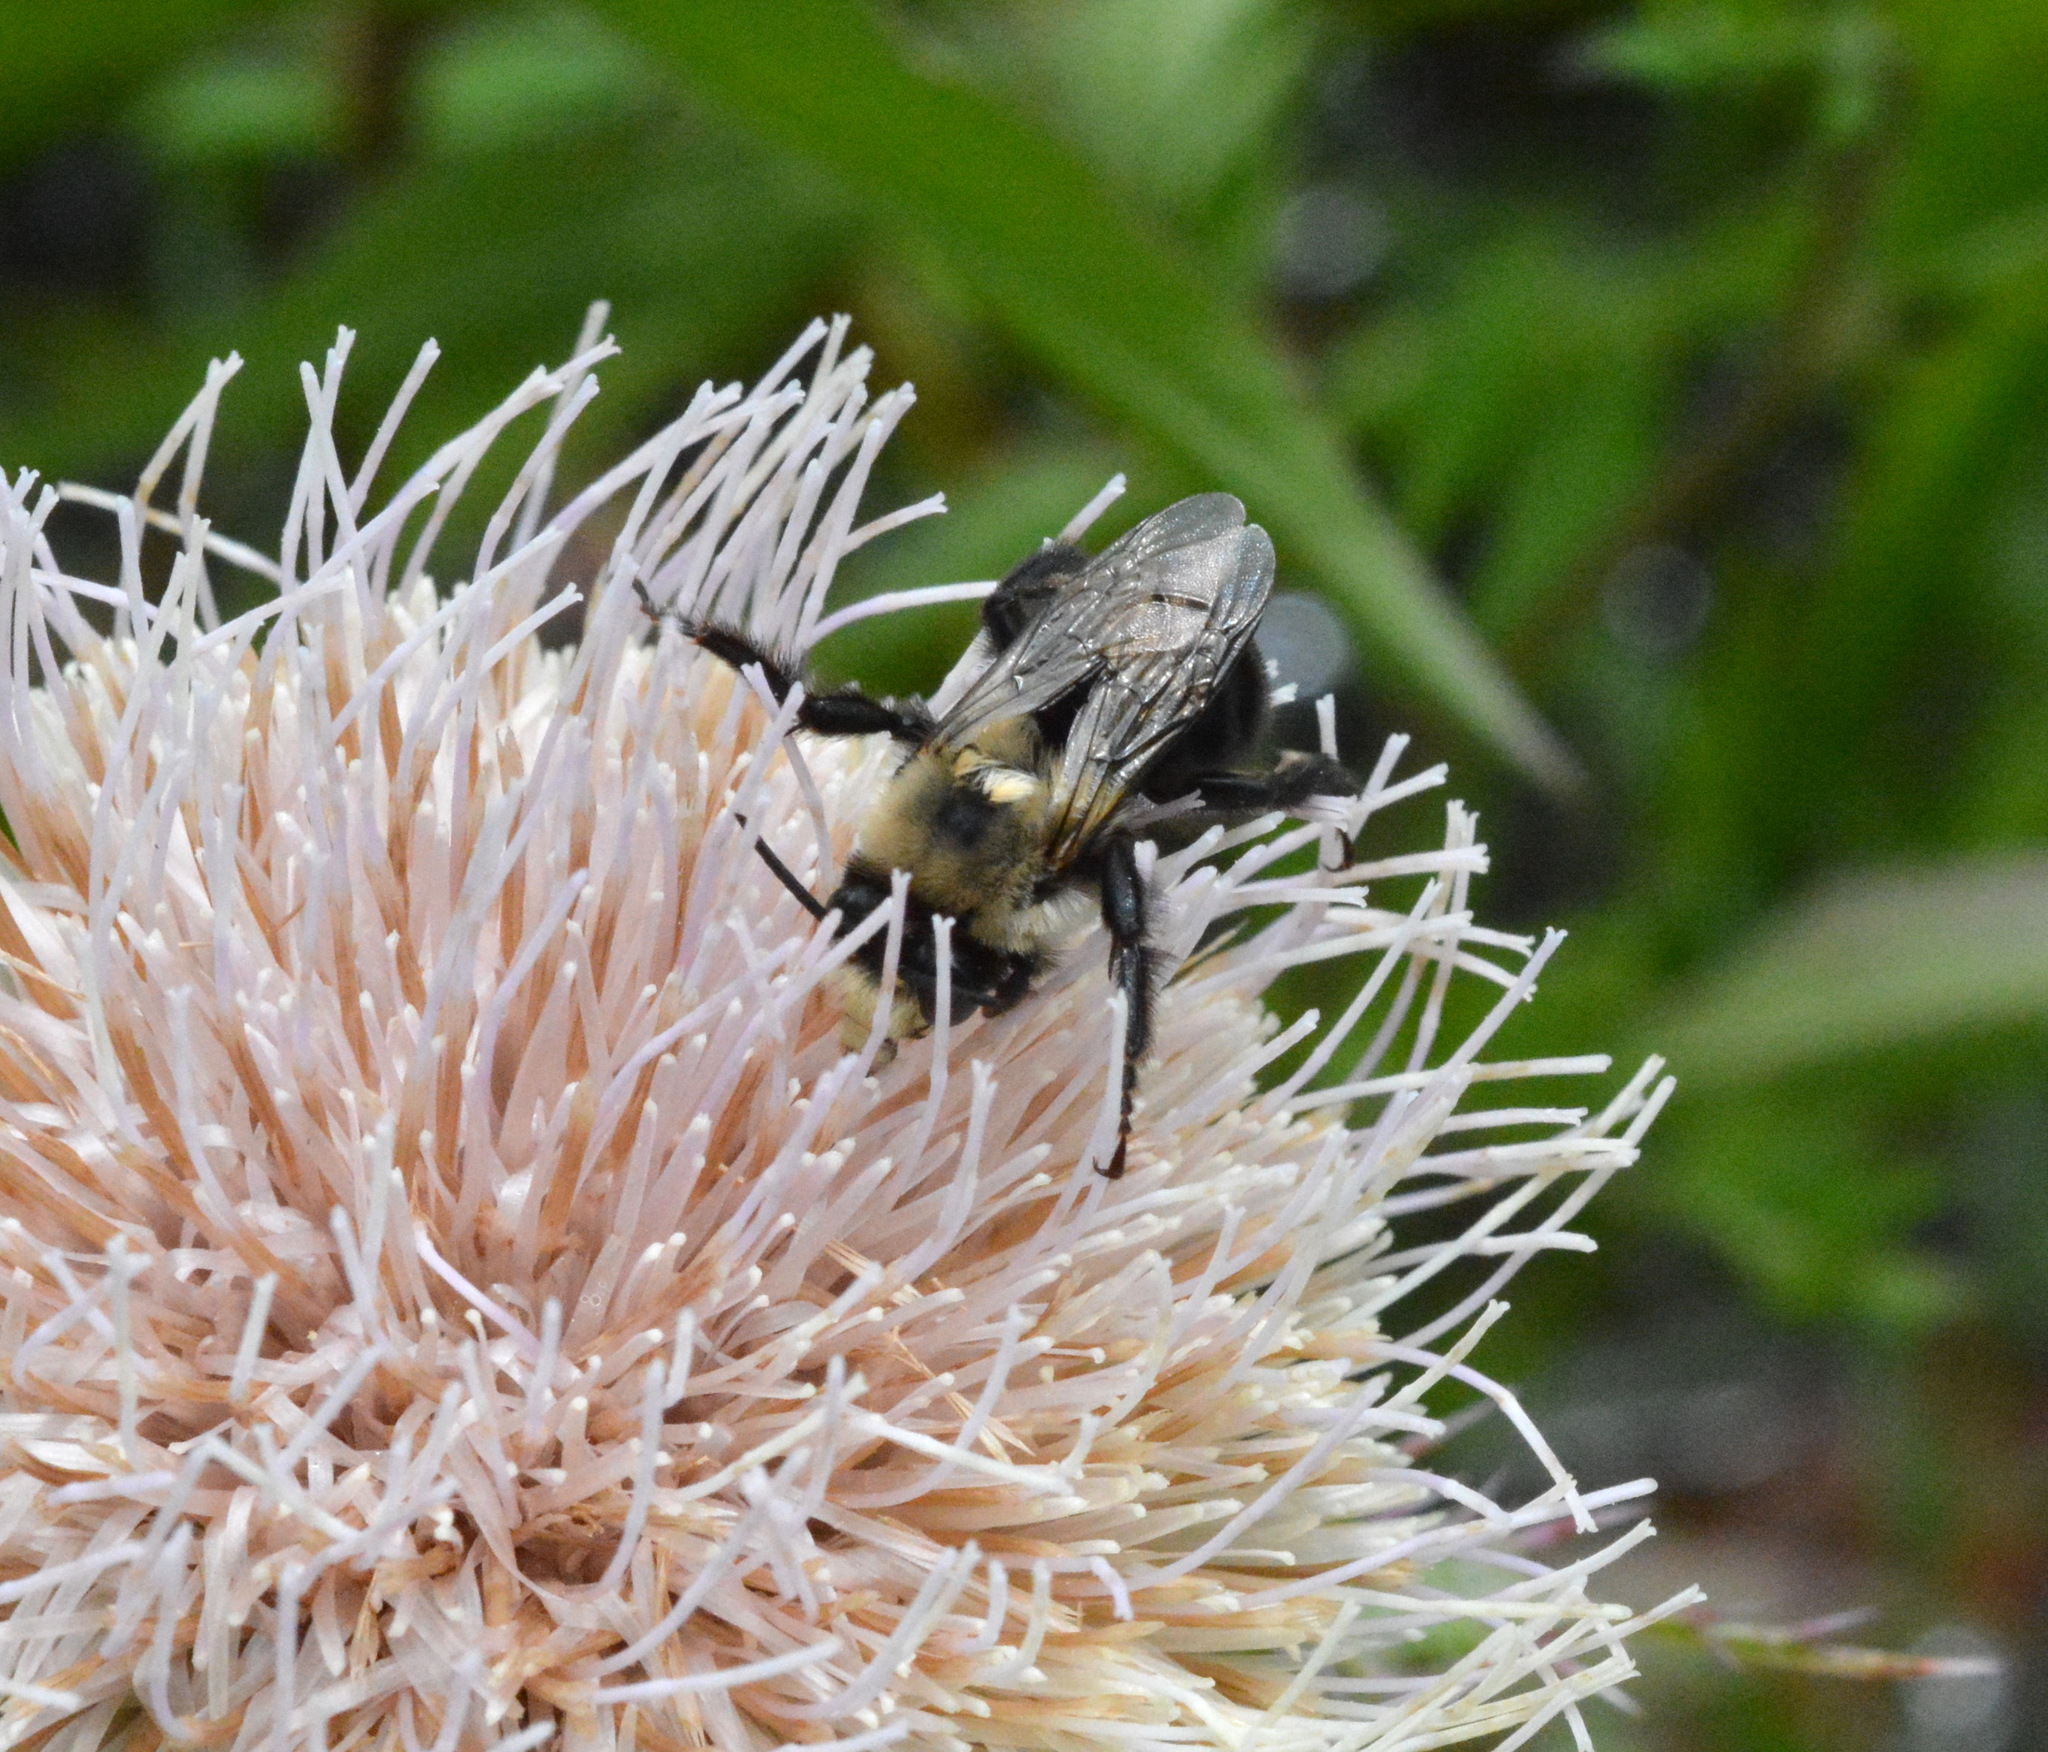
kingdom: Animalia
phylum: Arthropoda
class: Insecta
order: Hymenoptera
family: Apidae
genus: Anthophora
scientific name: Anthophora abrupta
